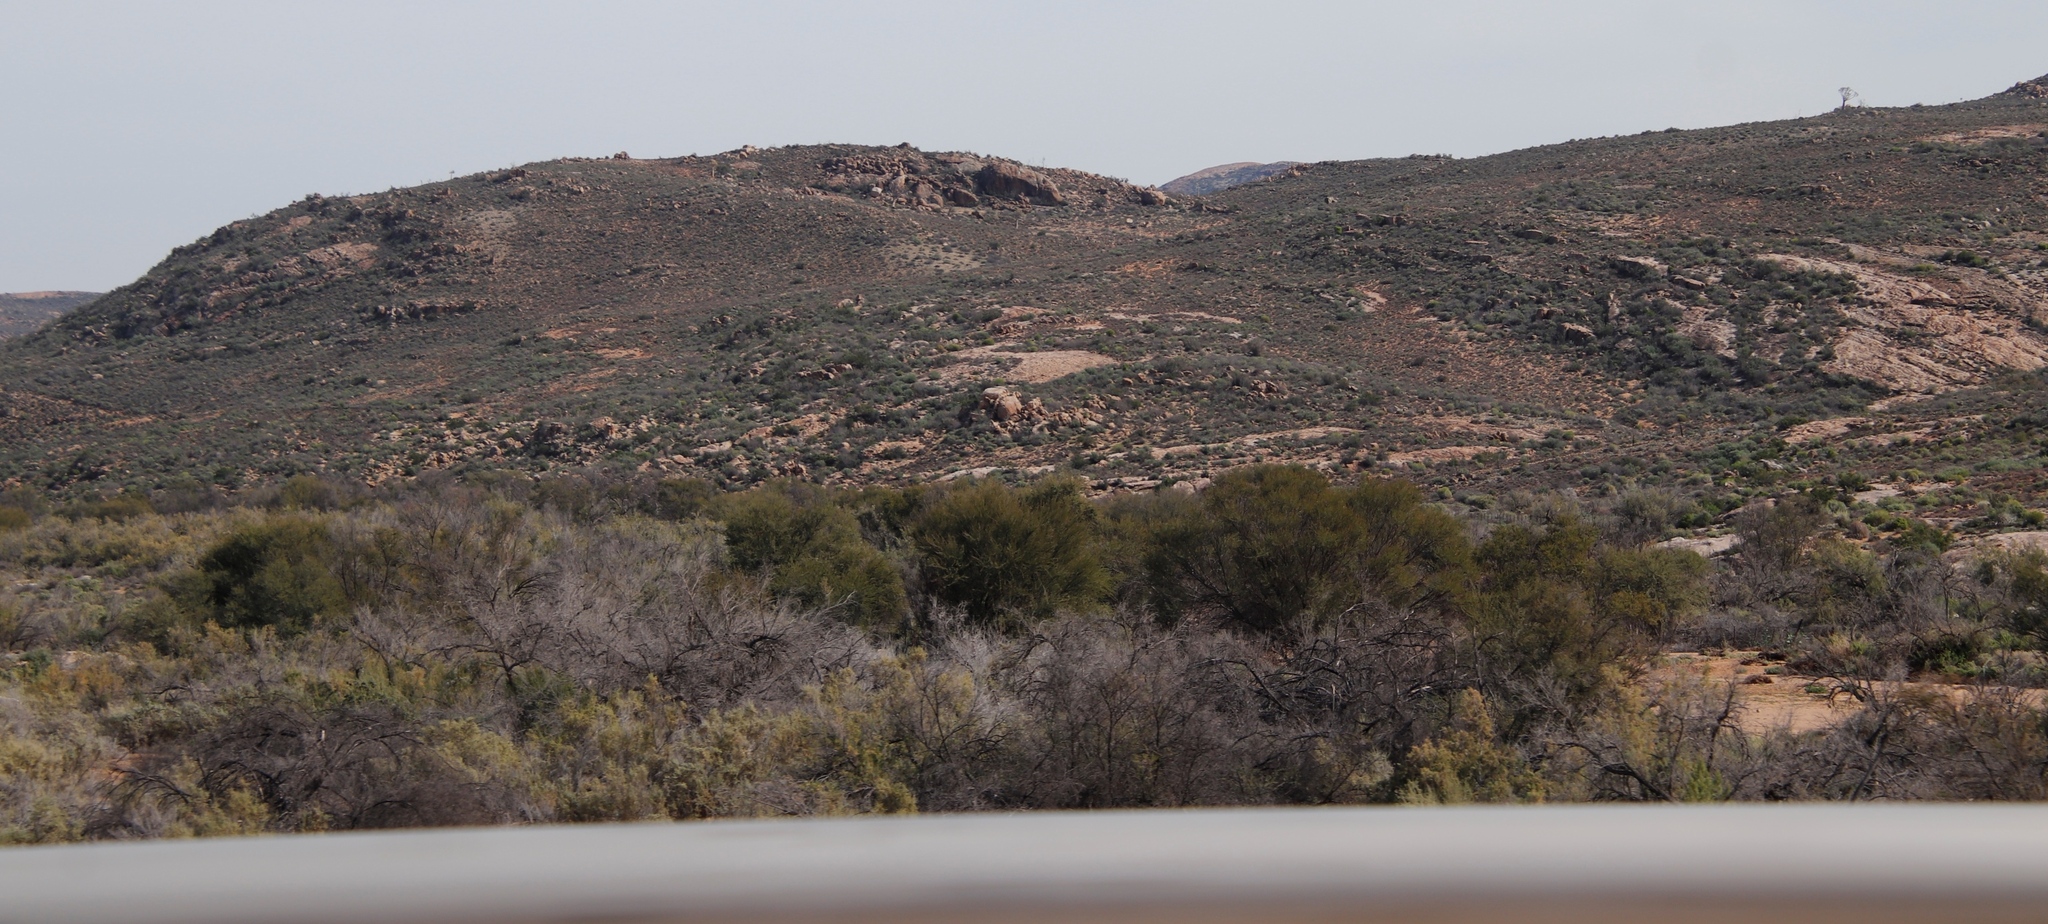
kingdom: Plantae
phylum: Tracheophyta
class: Magnoliopsida
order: Fabales
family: Fabaceae
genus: Vachellia
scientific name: Vachellia karroo
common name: Sweet thorn
